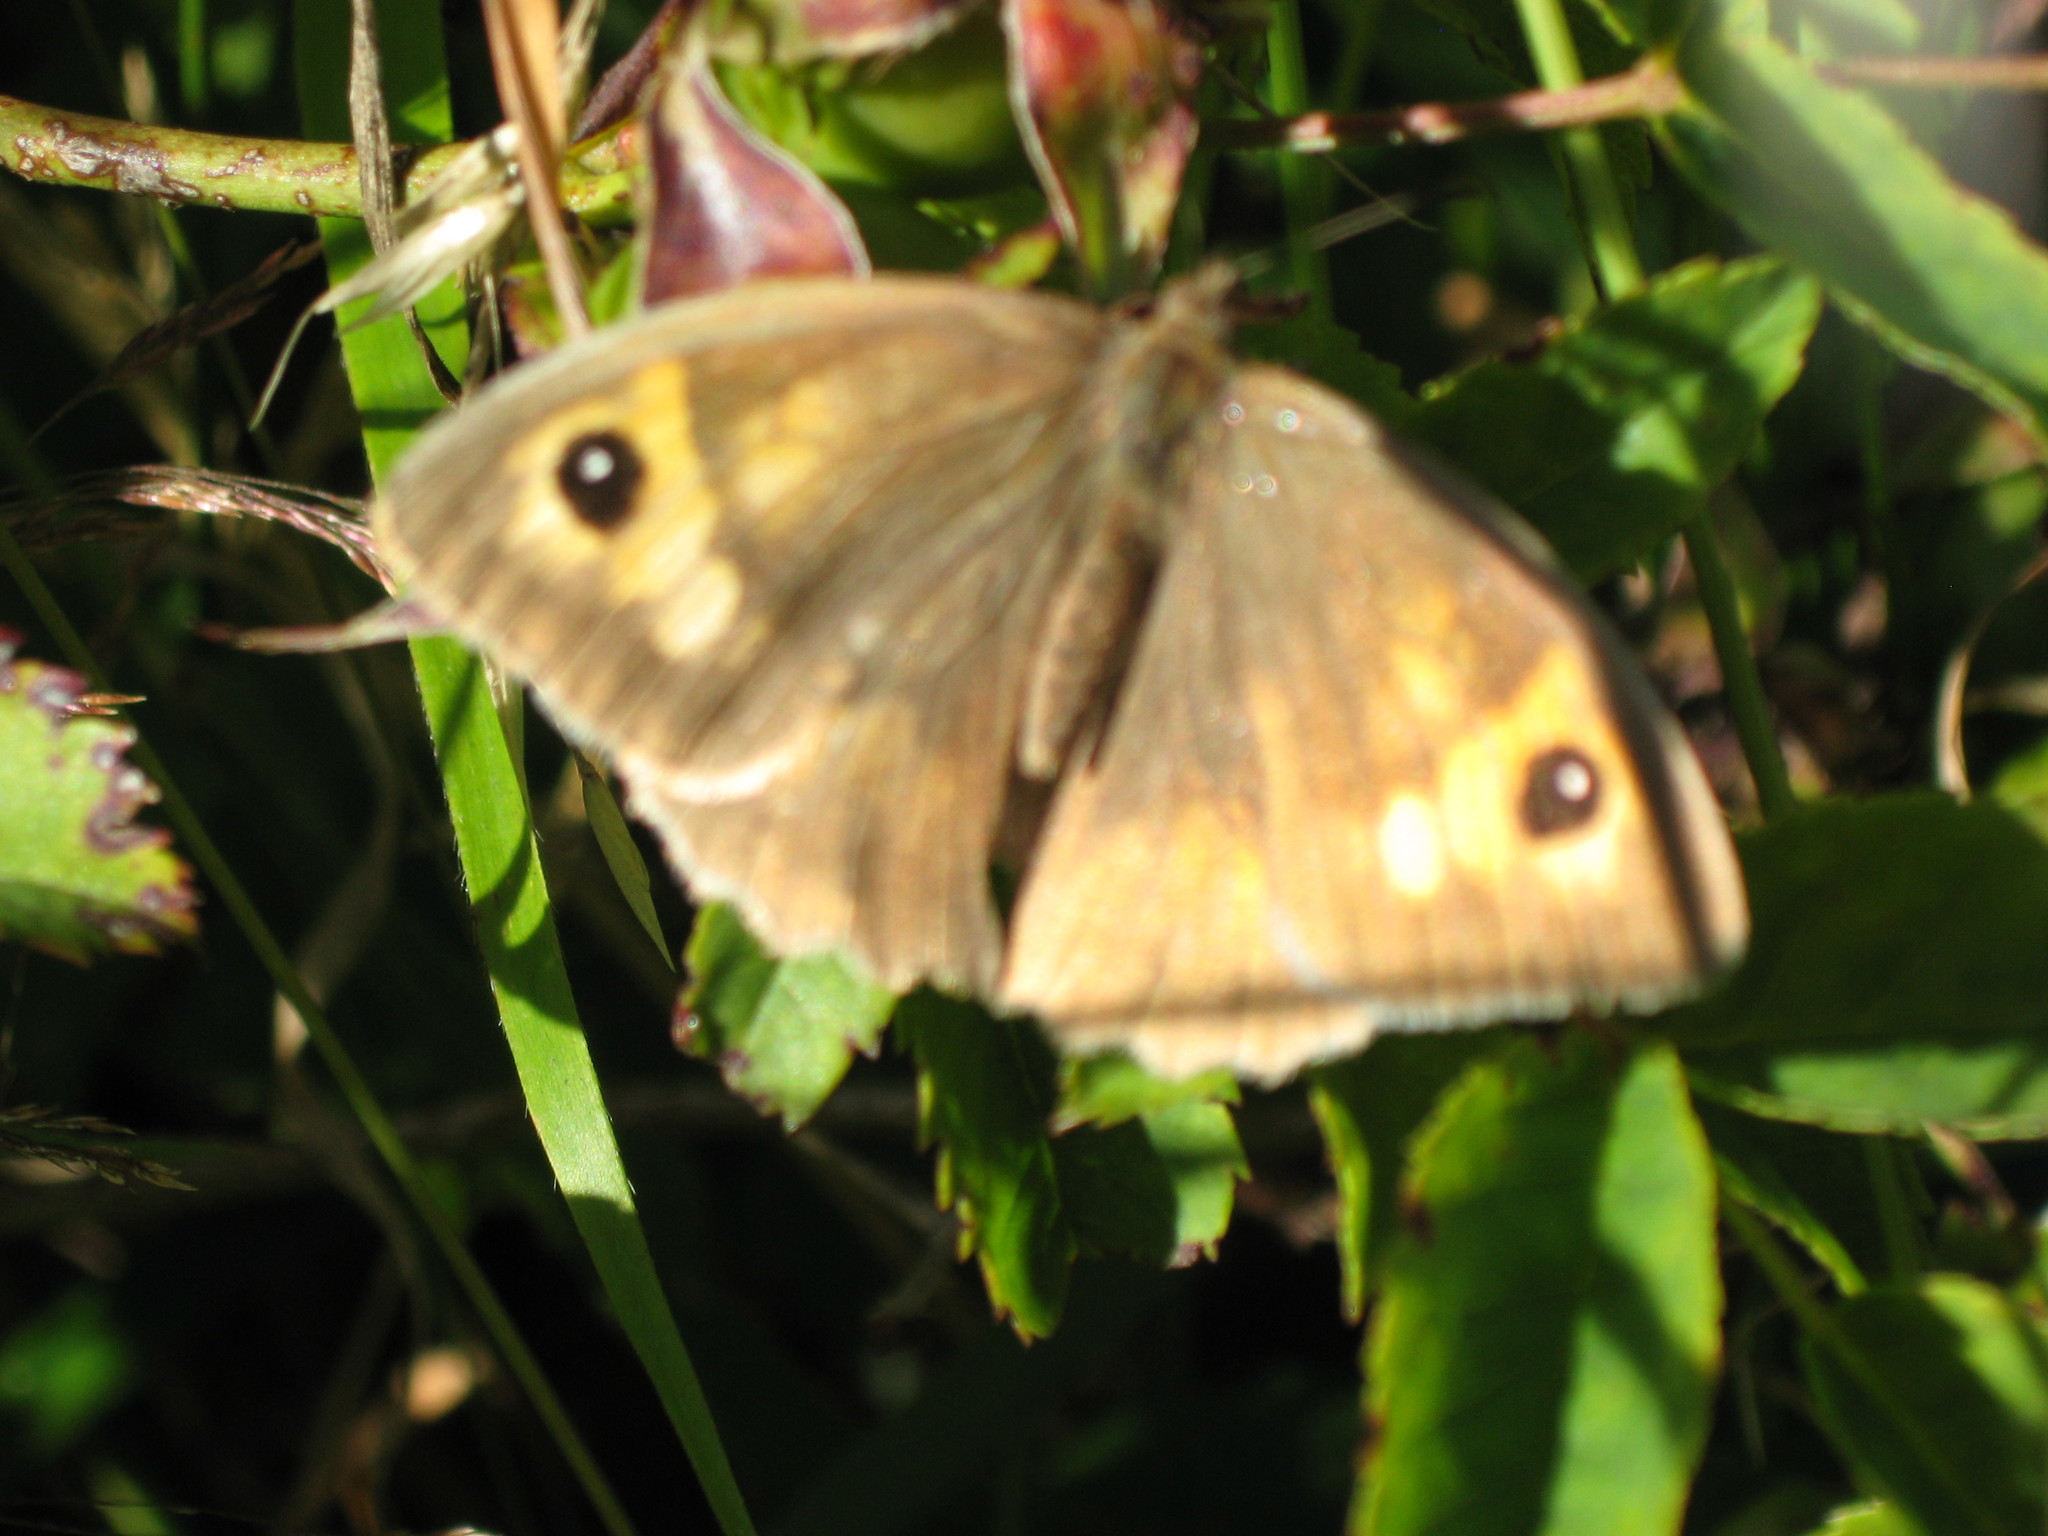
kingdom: Animalia
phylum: Arthropoda
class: Insecta
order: Lepidoptera
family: Nymphalidae
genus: Maniola
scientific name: Maniola jurtina
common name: Meadow brown
